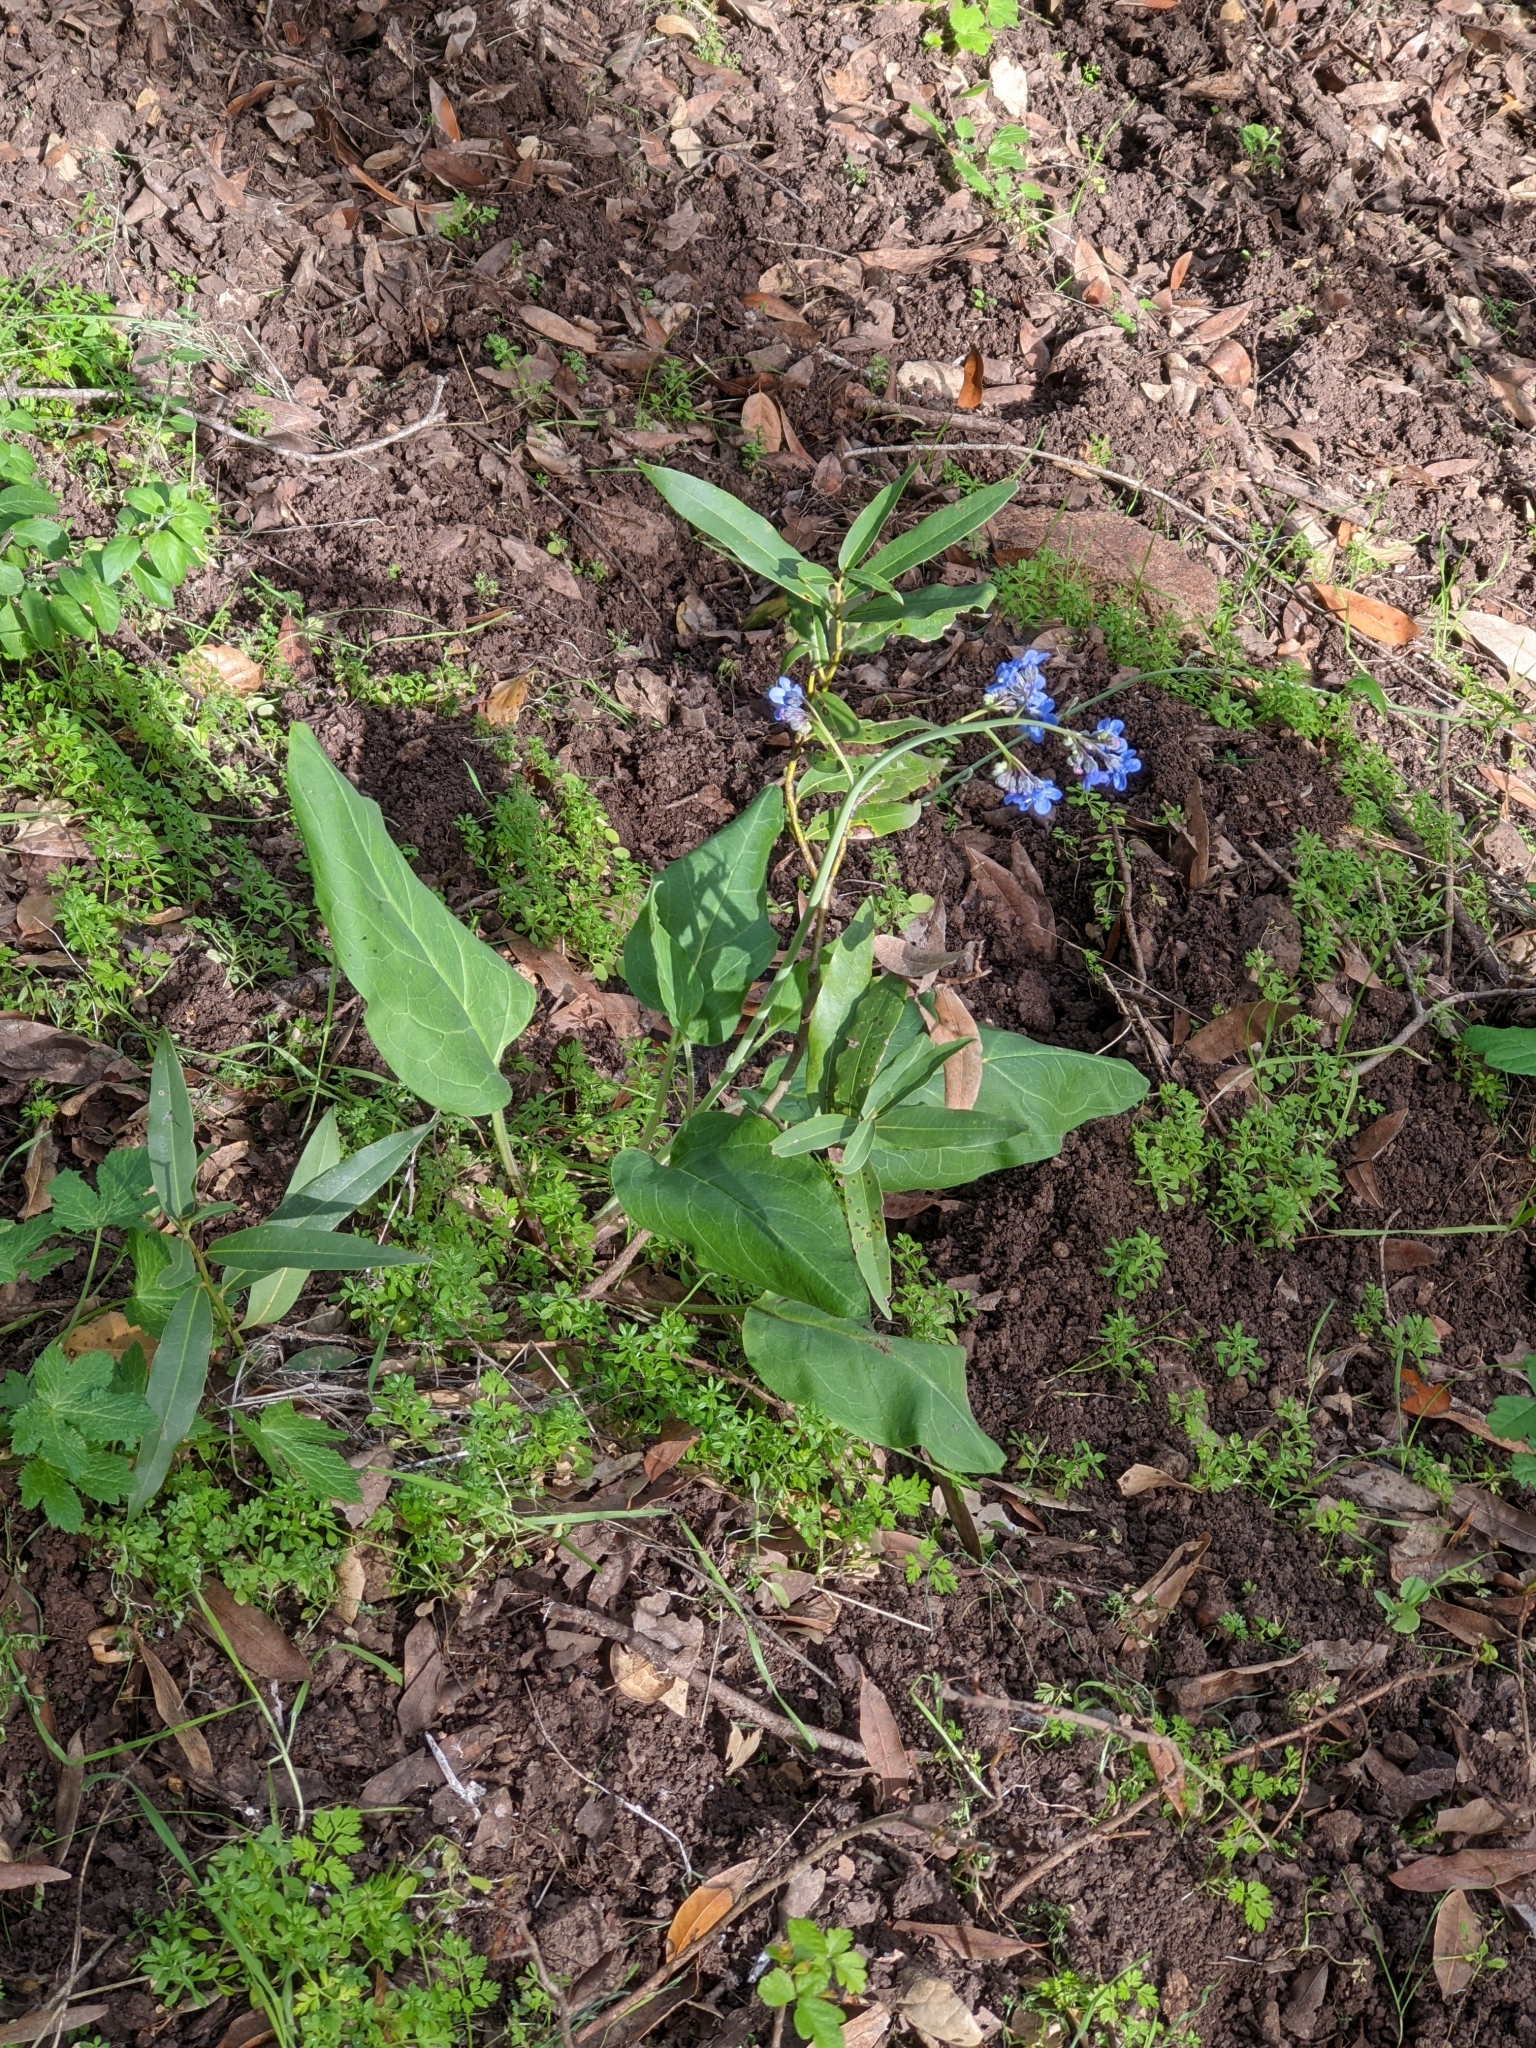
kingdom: Plantae
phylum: Tracheophyta
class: Magnoliopsida
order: Boraginales
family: Boraginaceae
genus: Adelinia
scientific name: Adelinia grande
